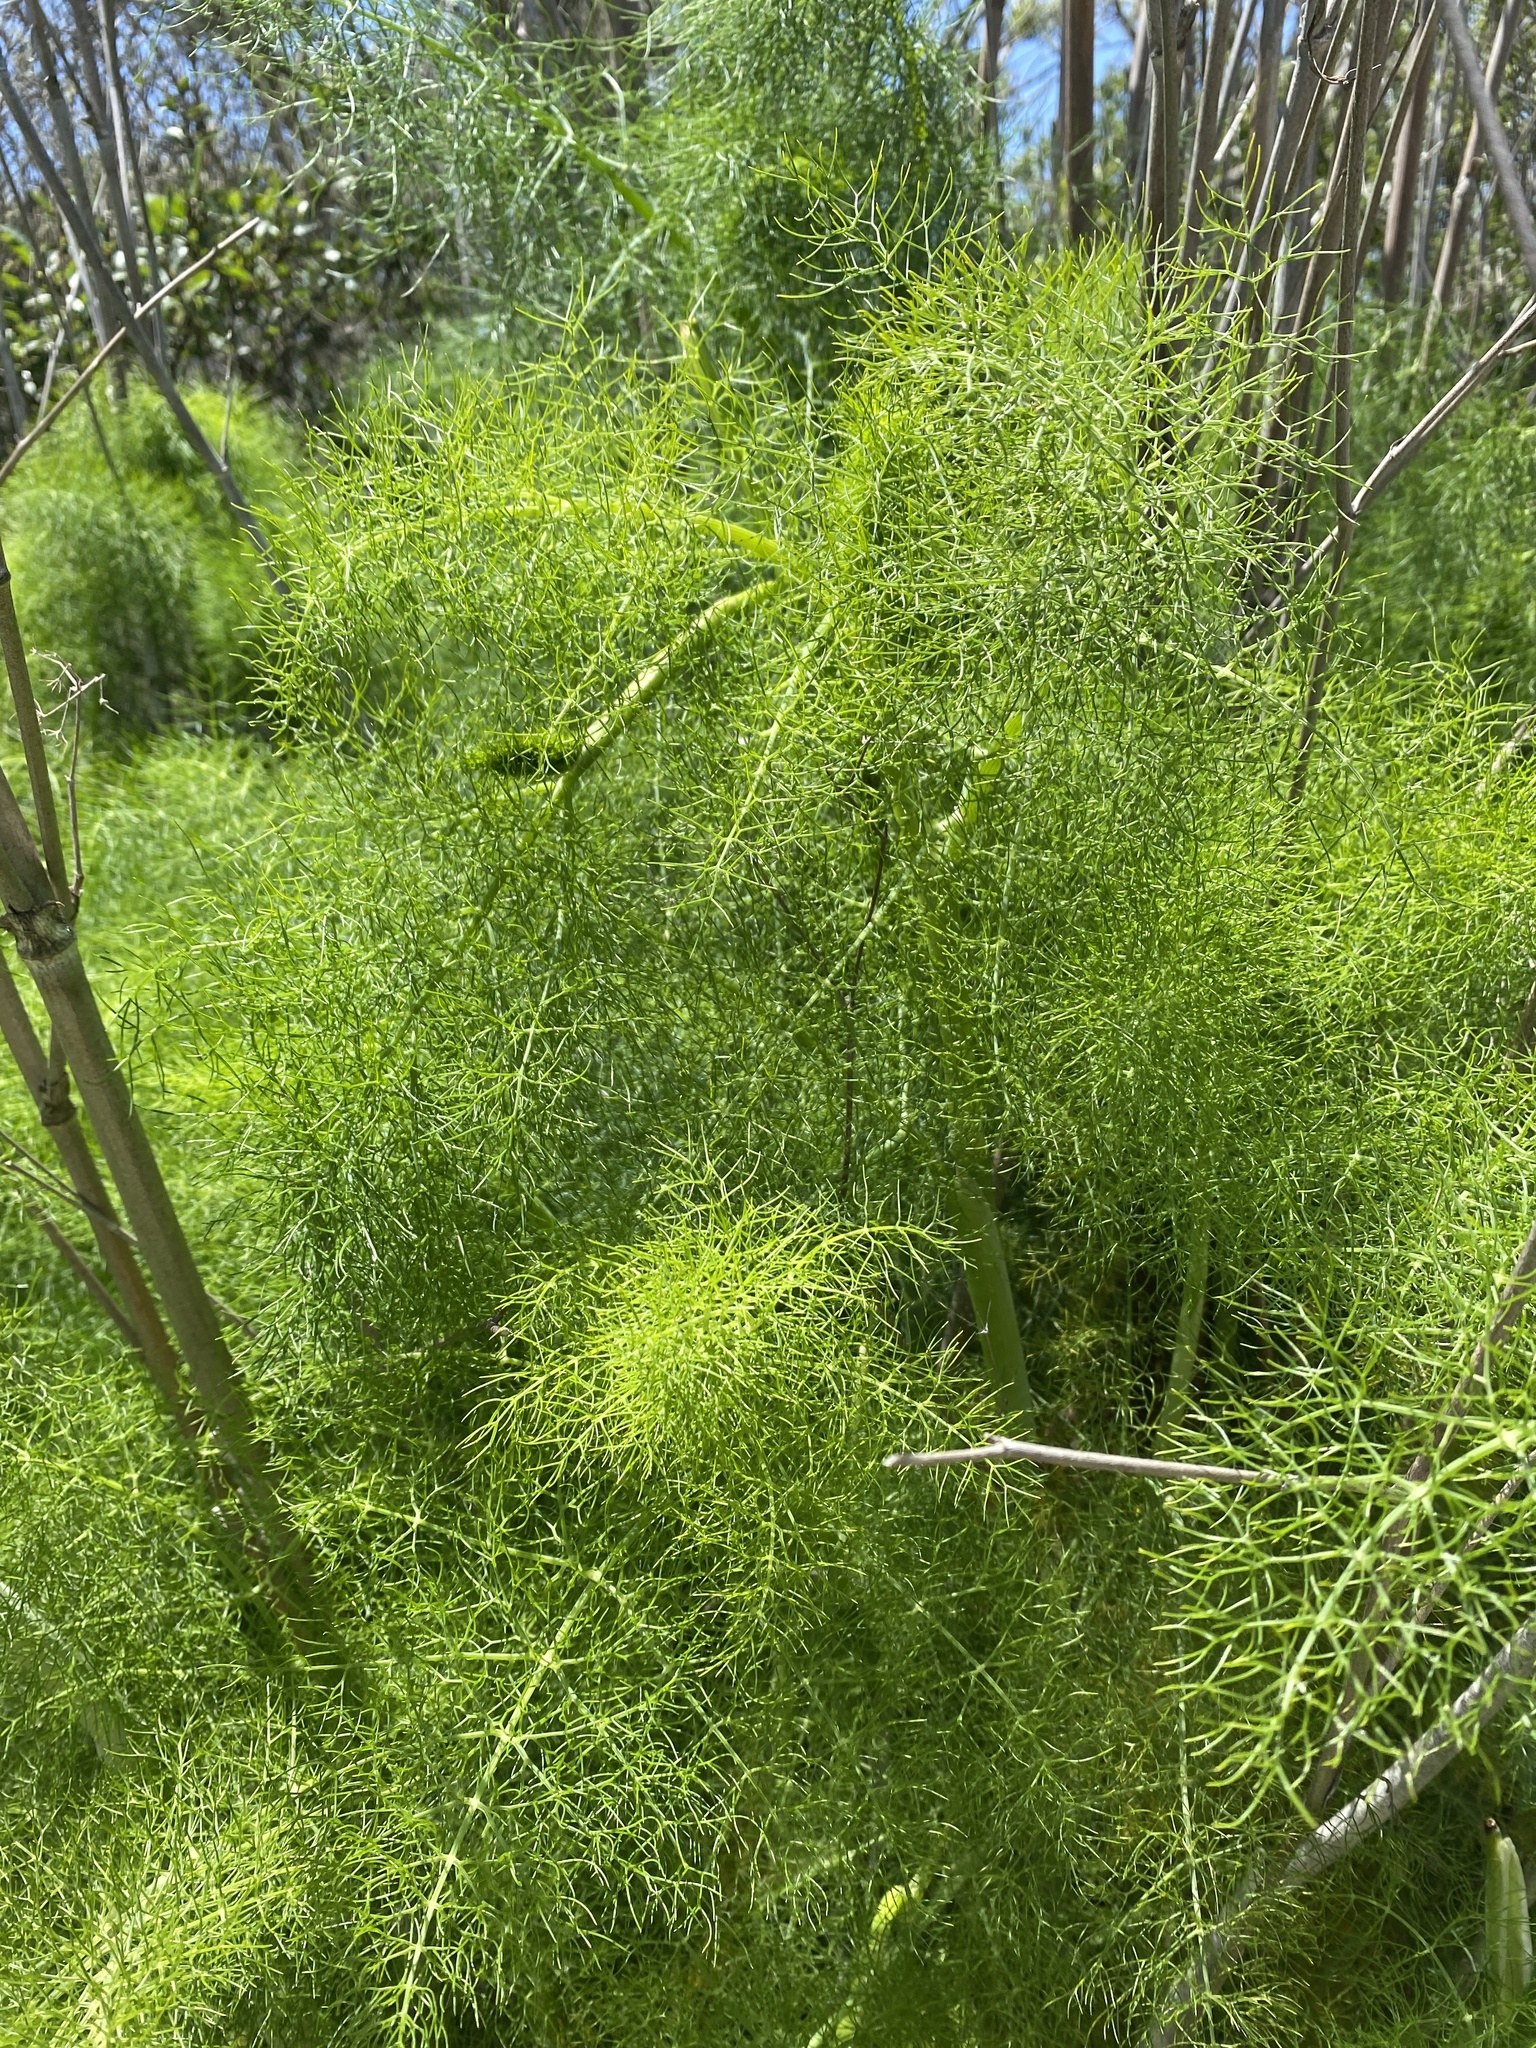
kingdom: Plantae
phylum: Tracheophyta
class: Magnoliopsida
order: Apiales
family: Apiaceae
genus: Foeniculum
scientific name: Foeniculum vulgare
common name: Fennel
